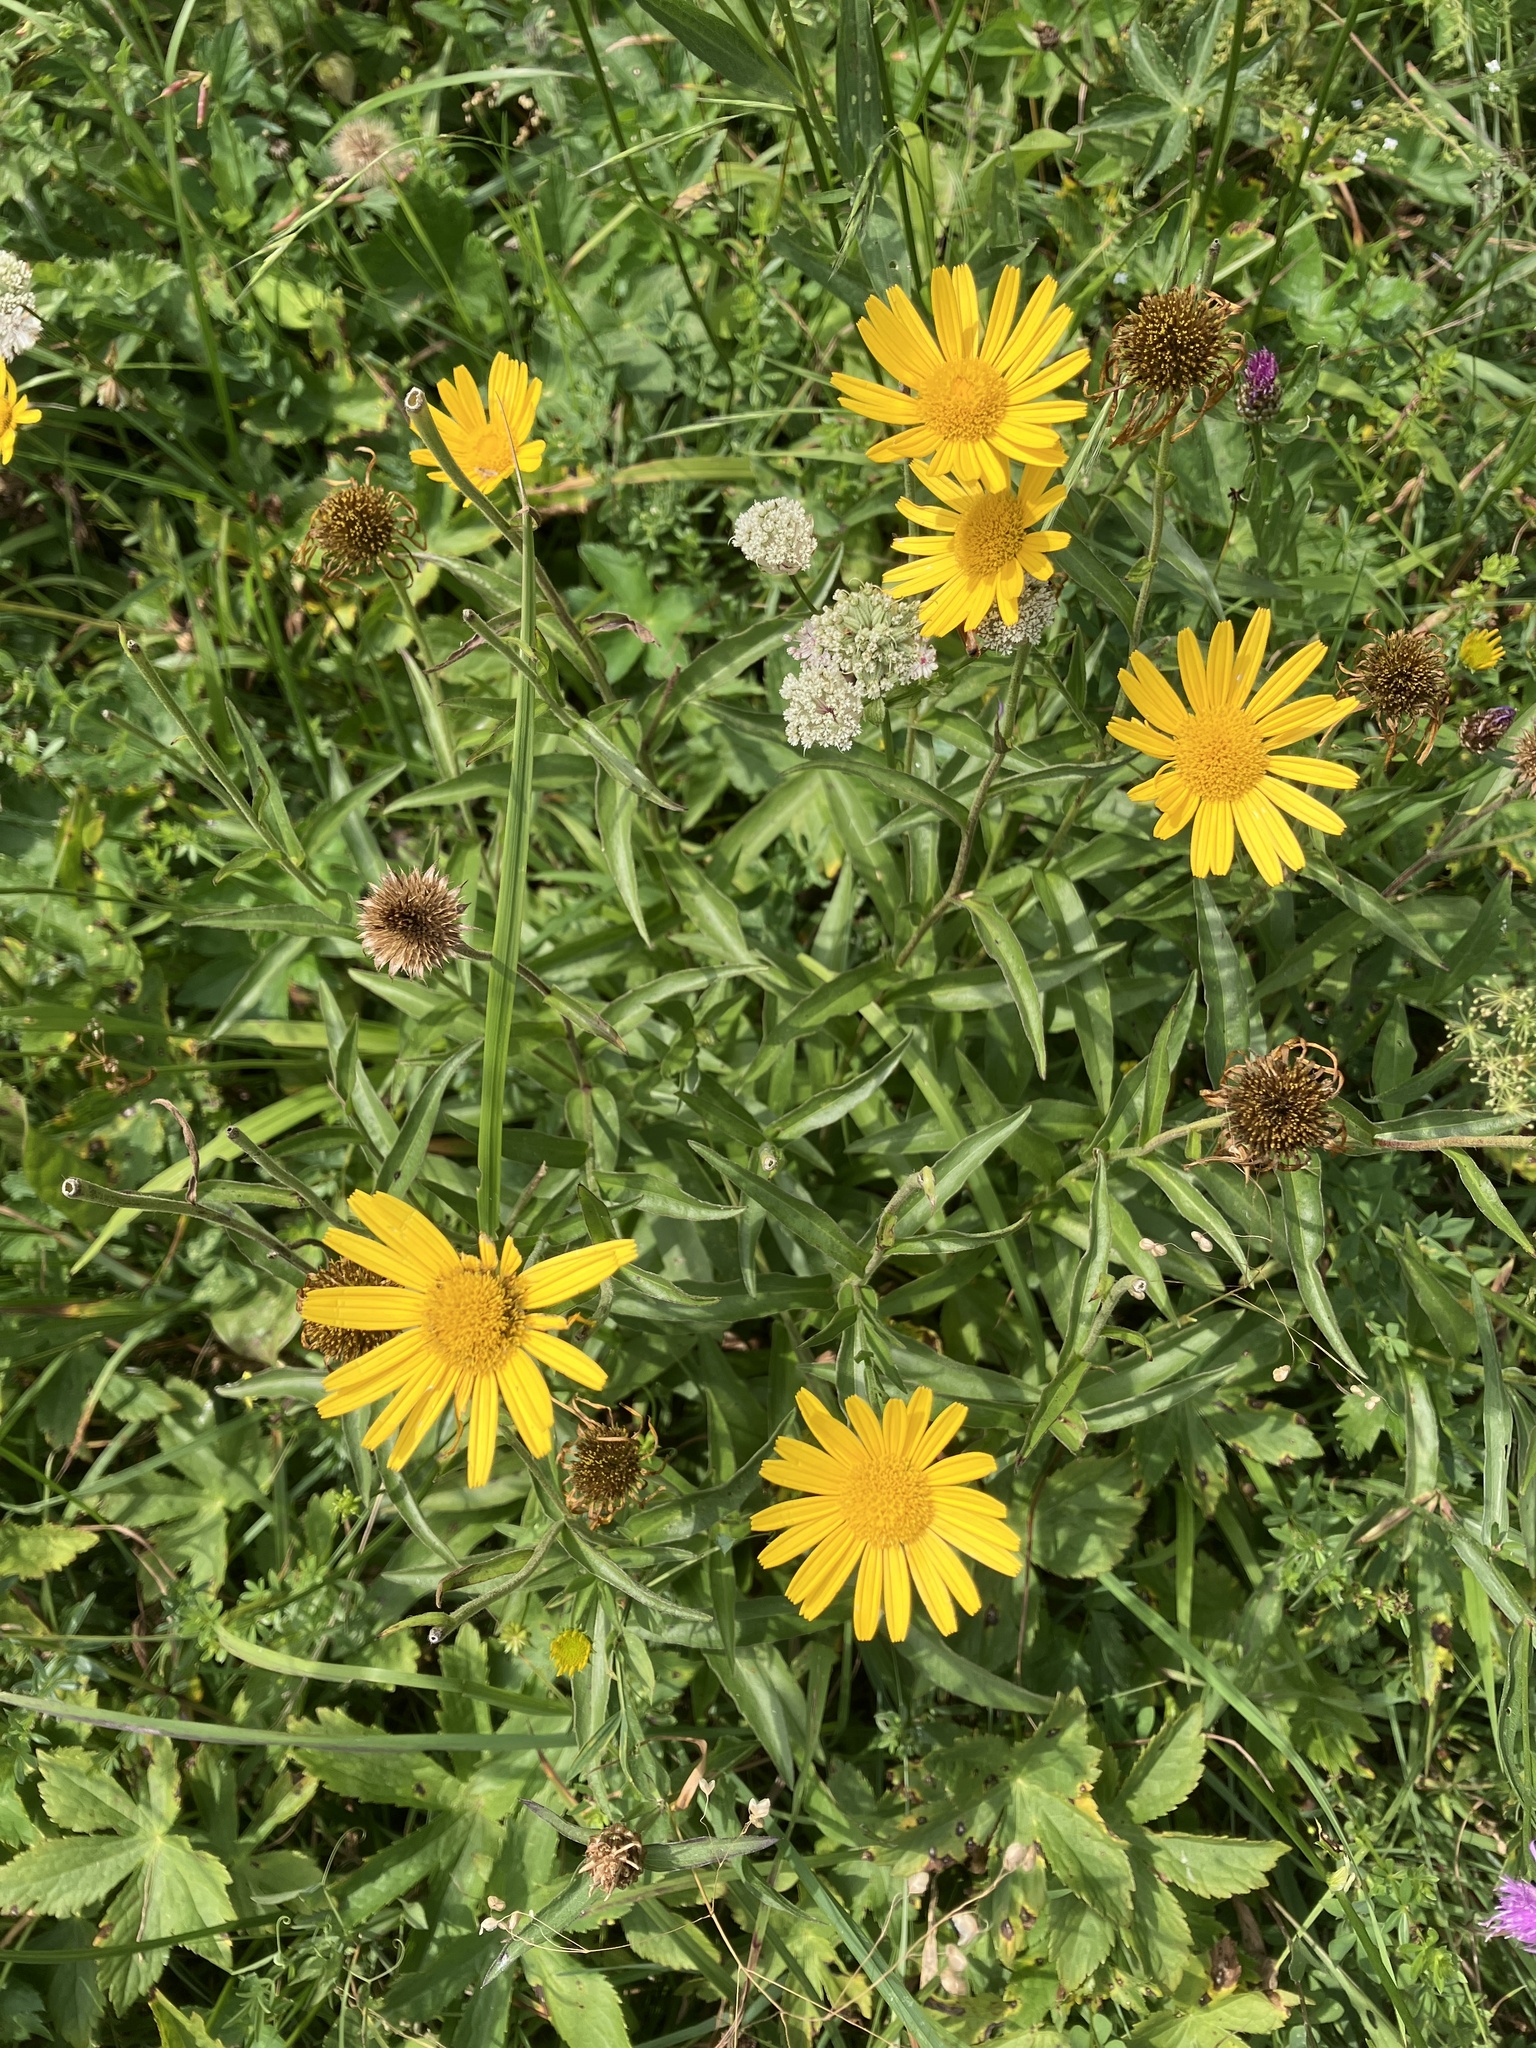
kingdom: Plantae
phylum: Tracheophyta
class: Magnoliopsida
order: Asterales
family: Asteraceae
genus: Buphthalmum
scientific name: Buphthalmum salicifolium
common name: Willow-leaved yellow-oxeye
